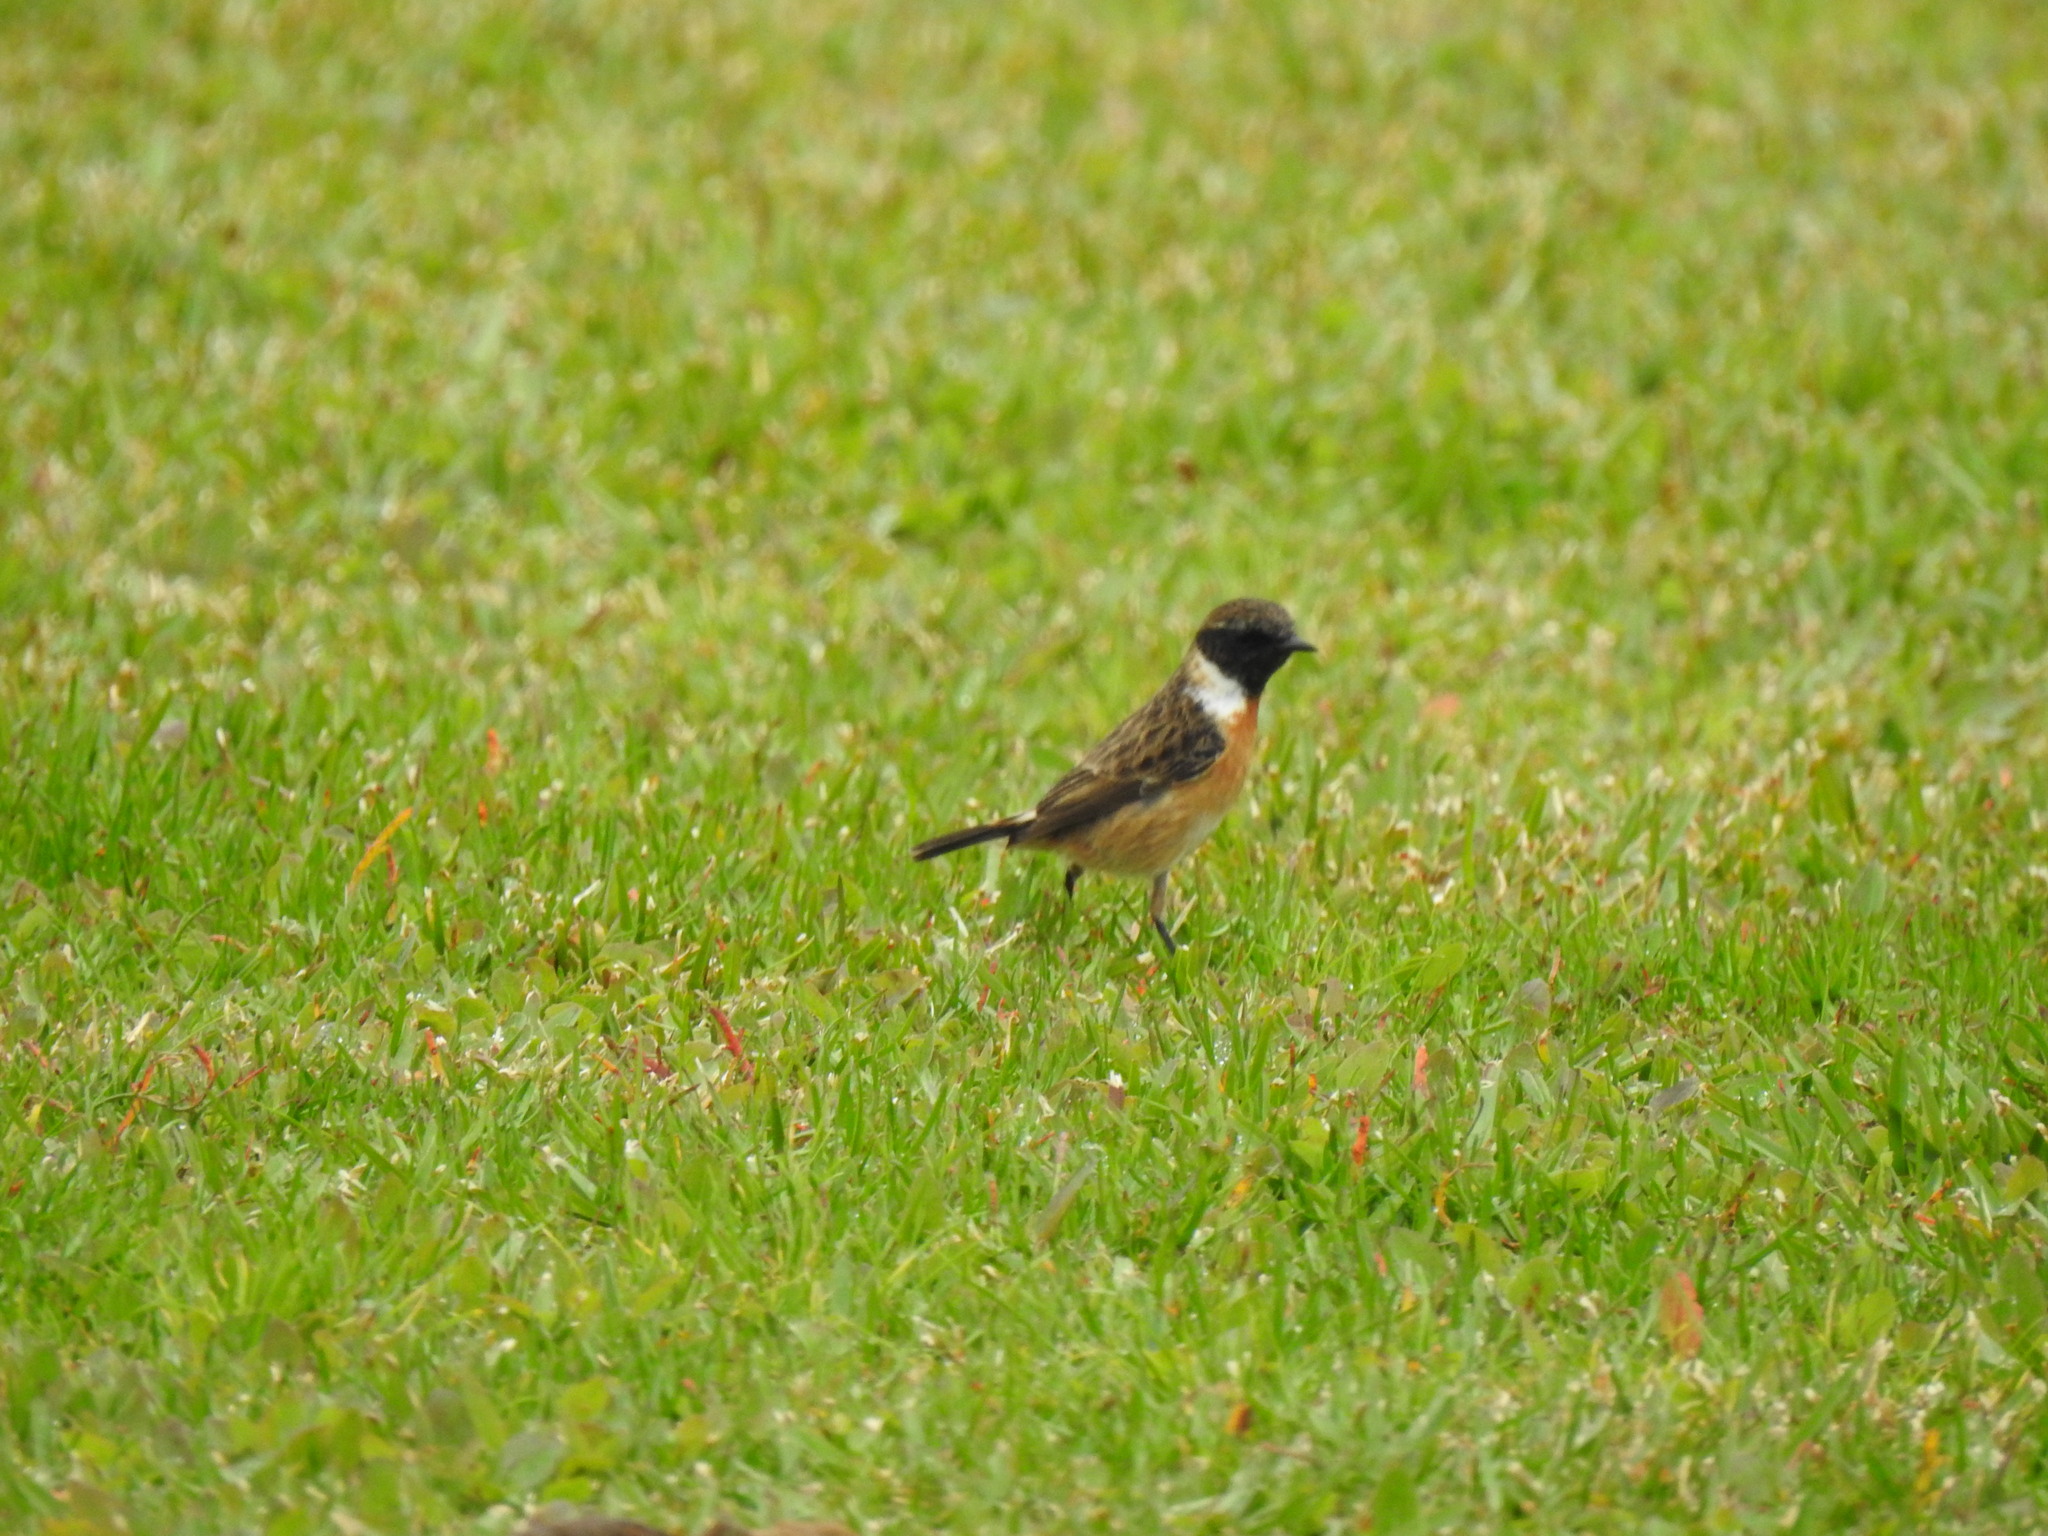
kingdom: Animalia
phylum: Chordata
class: Aves
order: Passeriformes
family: Muscicapidae
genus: Saxicola
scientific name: Saxicola rubicola
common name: European stonechat
